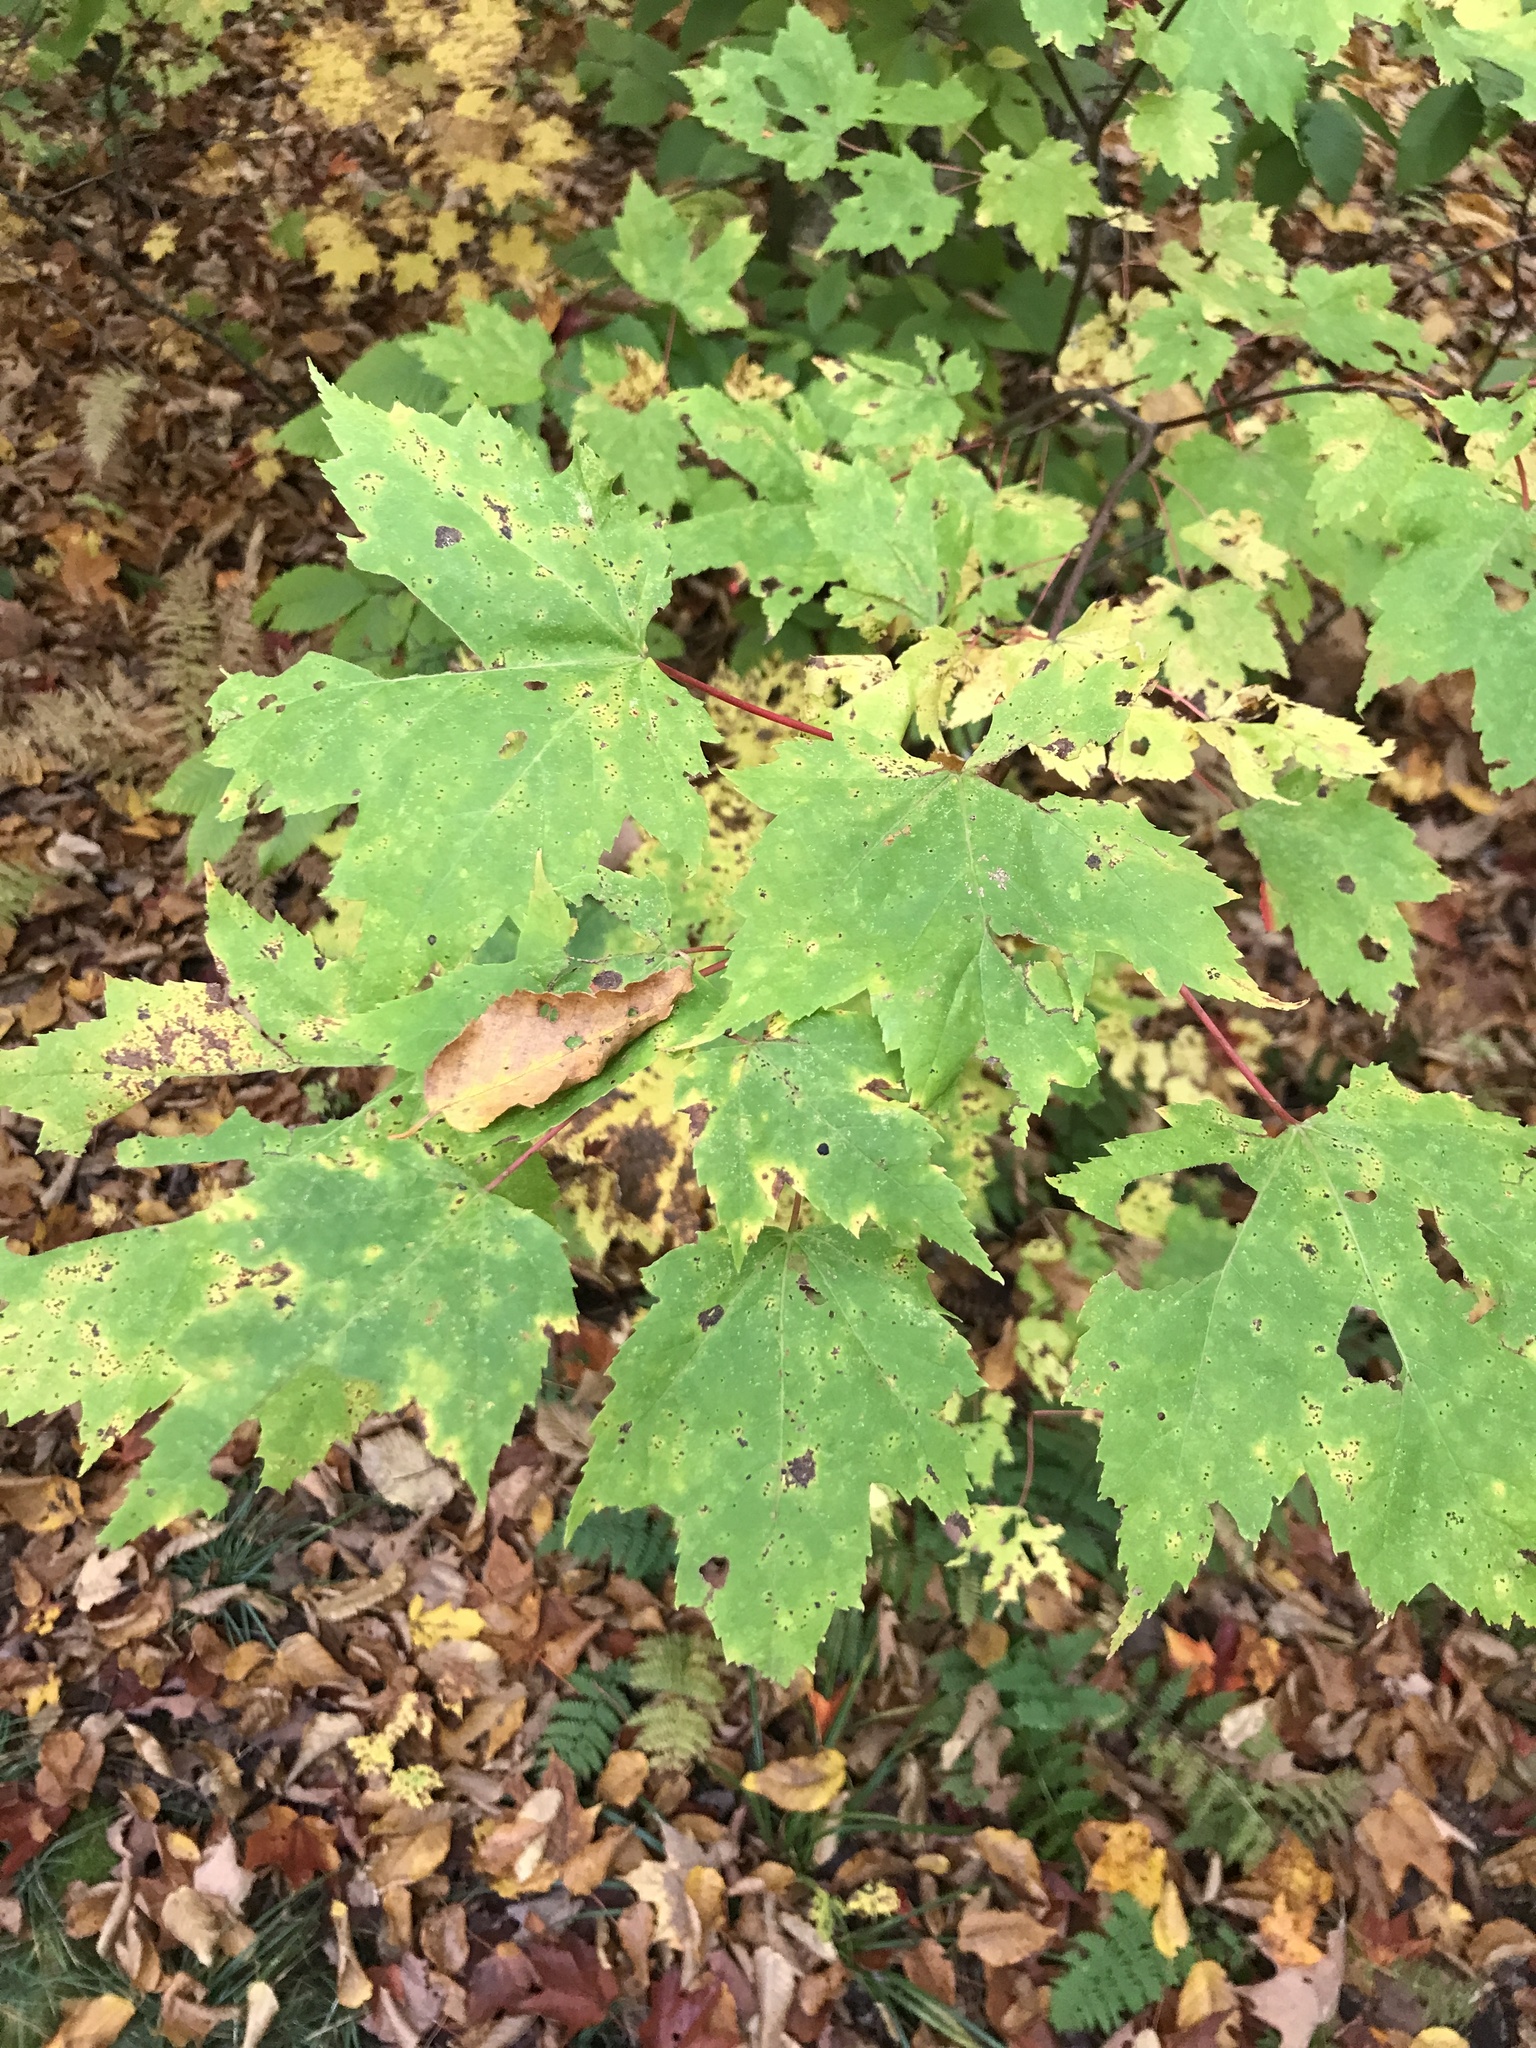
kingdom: Plantae
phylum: Tracheophyta
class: Magnoliopsida
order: Sapindales
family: Sapindaceae
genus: Acer
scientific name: Acer rubrum
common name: Red maple
